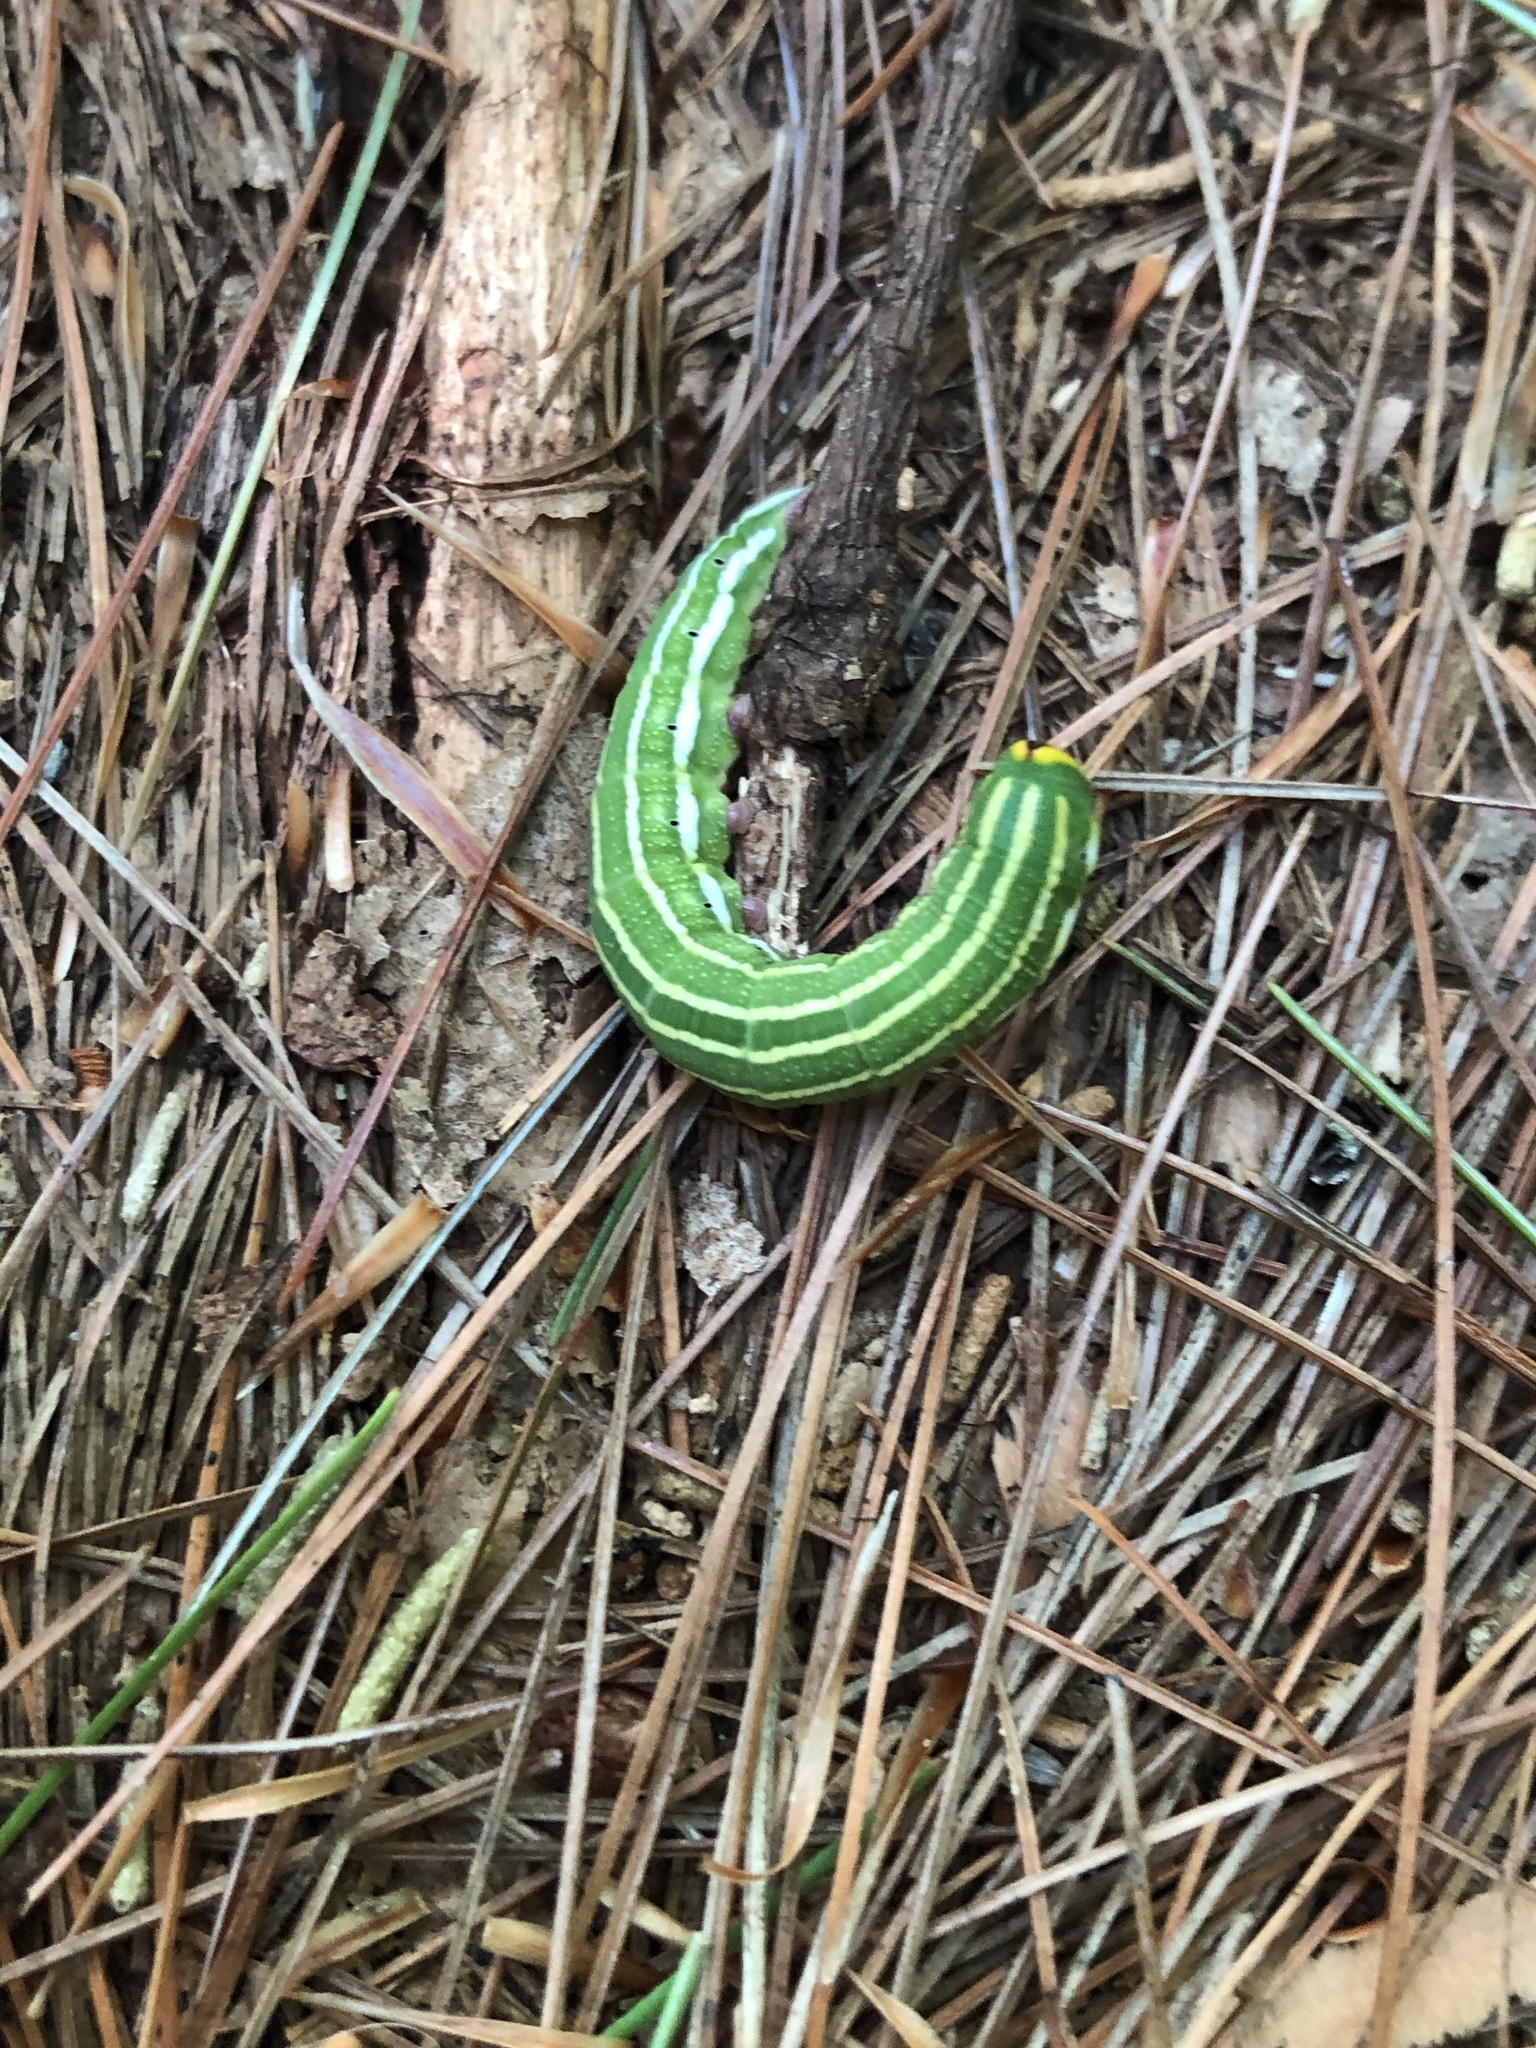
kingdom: Animalia
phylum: Arthropoda
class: Insecta
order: Lepidoptera
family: Sphingidae
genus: Lapara
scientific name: Lapara bombycoides
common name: Northern pine sphinx
